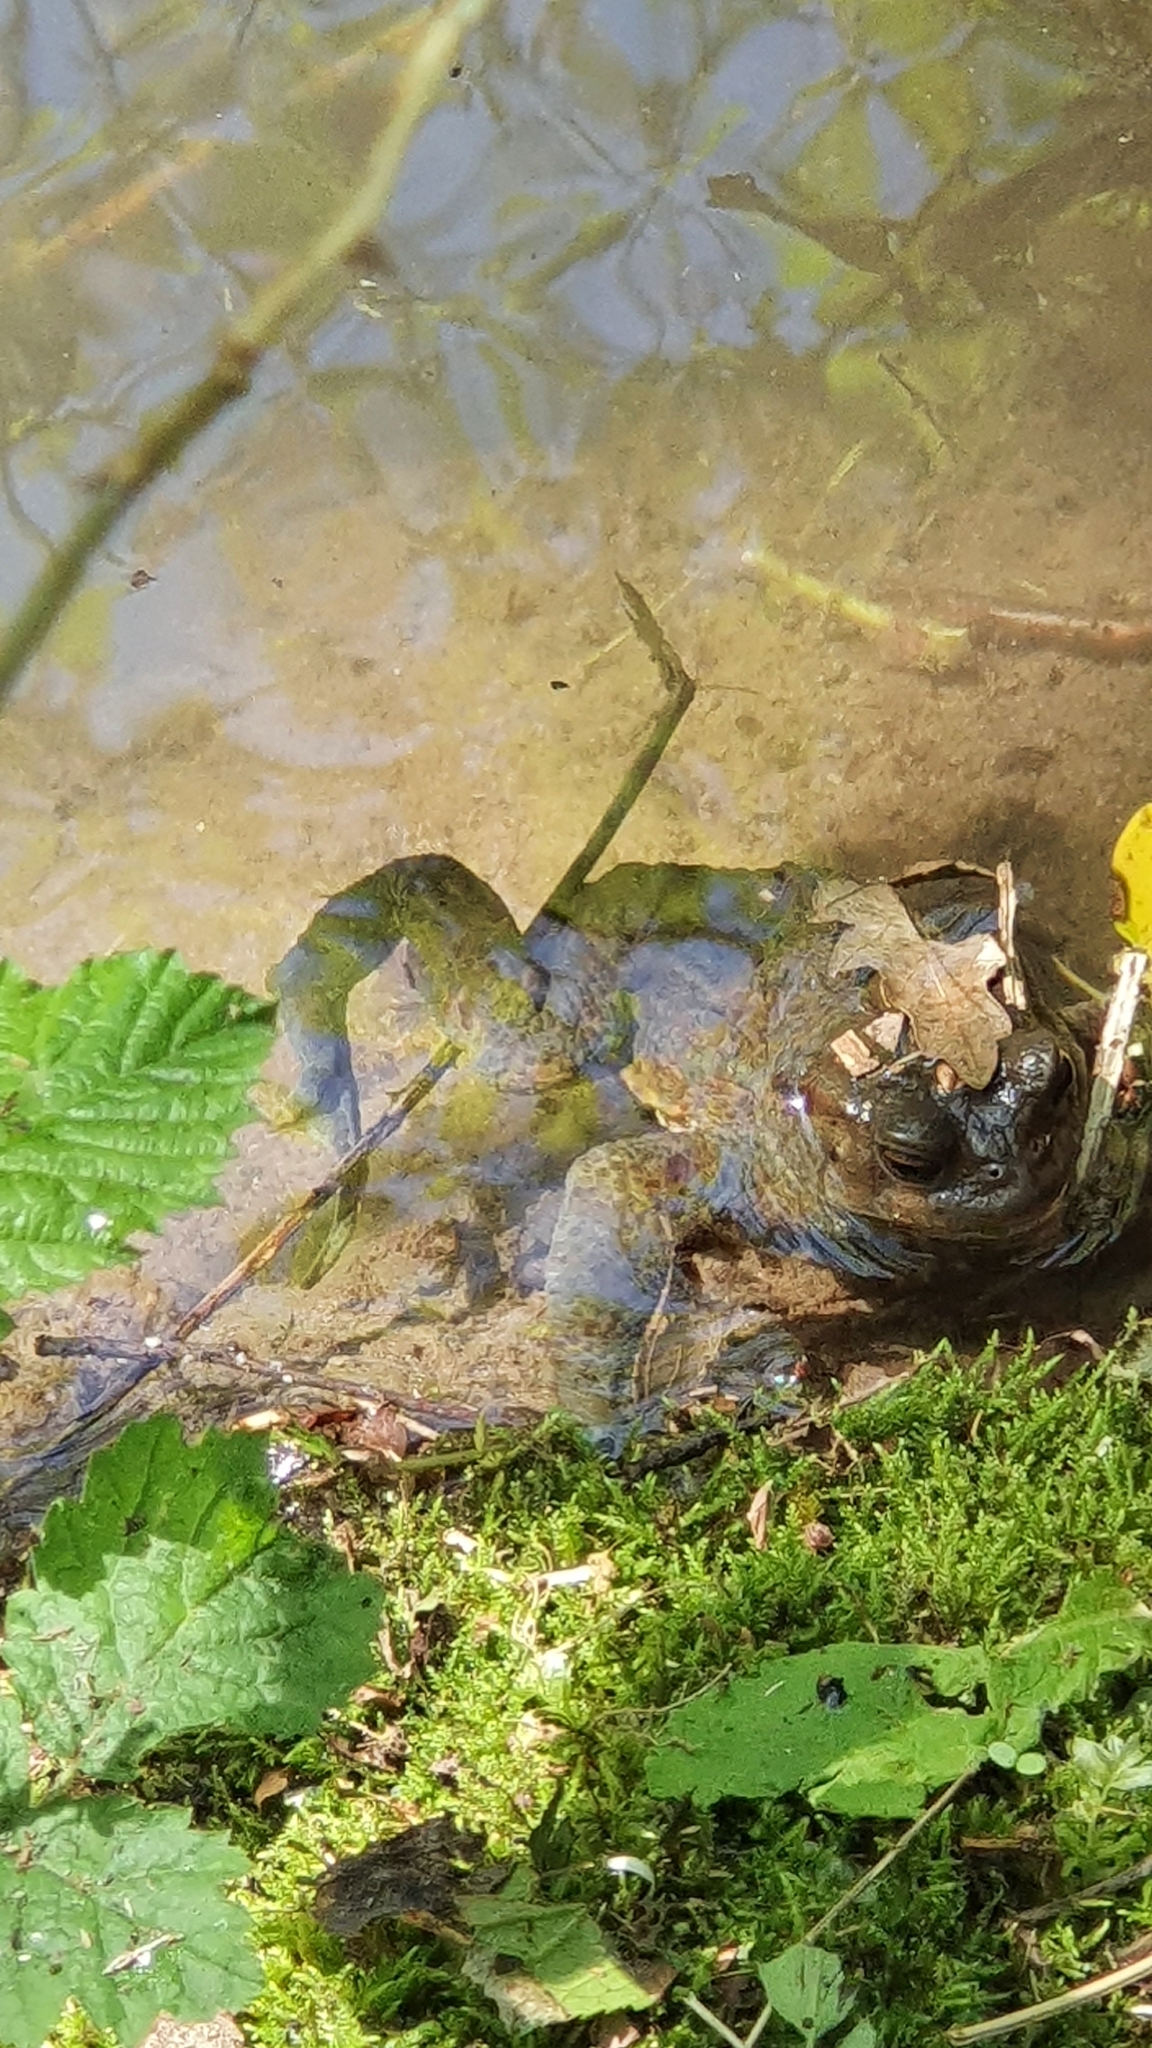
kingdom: Animalia
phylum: Chordata
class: Amphibia
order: Anura
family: Bufonidae
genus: Bufo
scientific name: Bufo bufo
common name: Common toad
